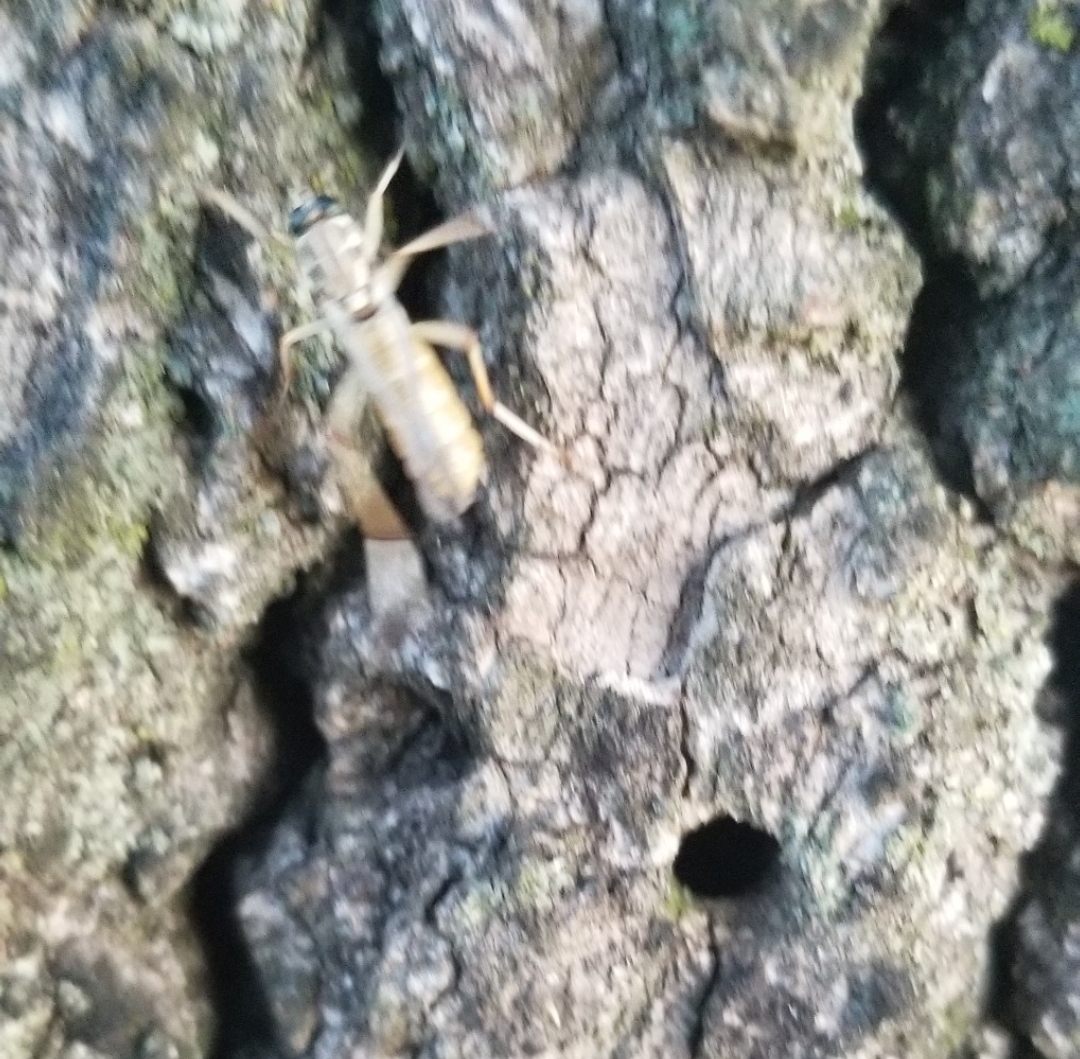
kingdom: Animalia
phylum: Arthropoda
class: Insecta
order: Diptera
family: Xylomyidae
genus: Xylomya
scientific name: Xylomya americana
